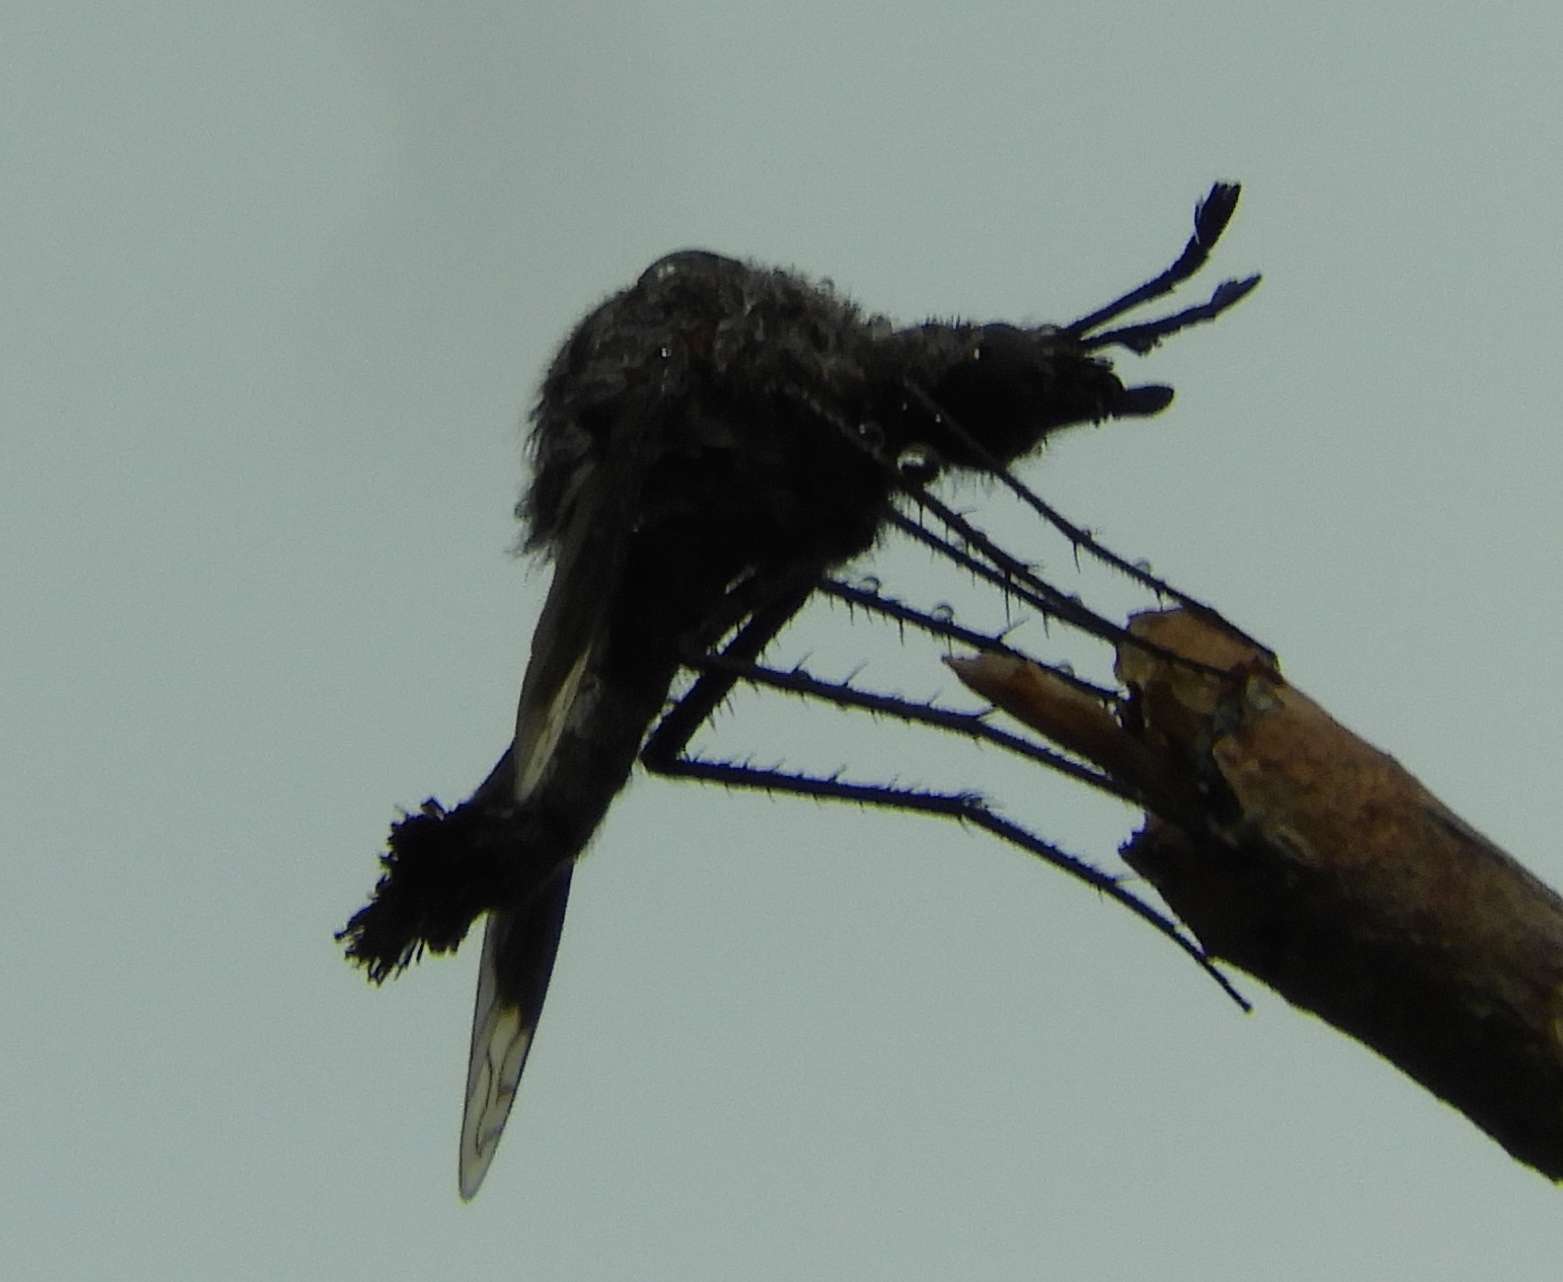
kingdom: Animalia
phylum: Arthropoda
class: Insecta
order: Diptera
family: Bombyliidae
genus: Lepidophora
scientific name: Lepidophora vetusta
